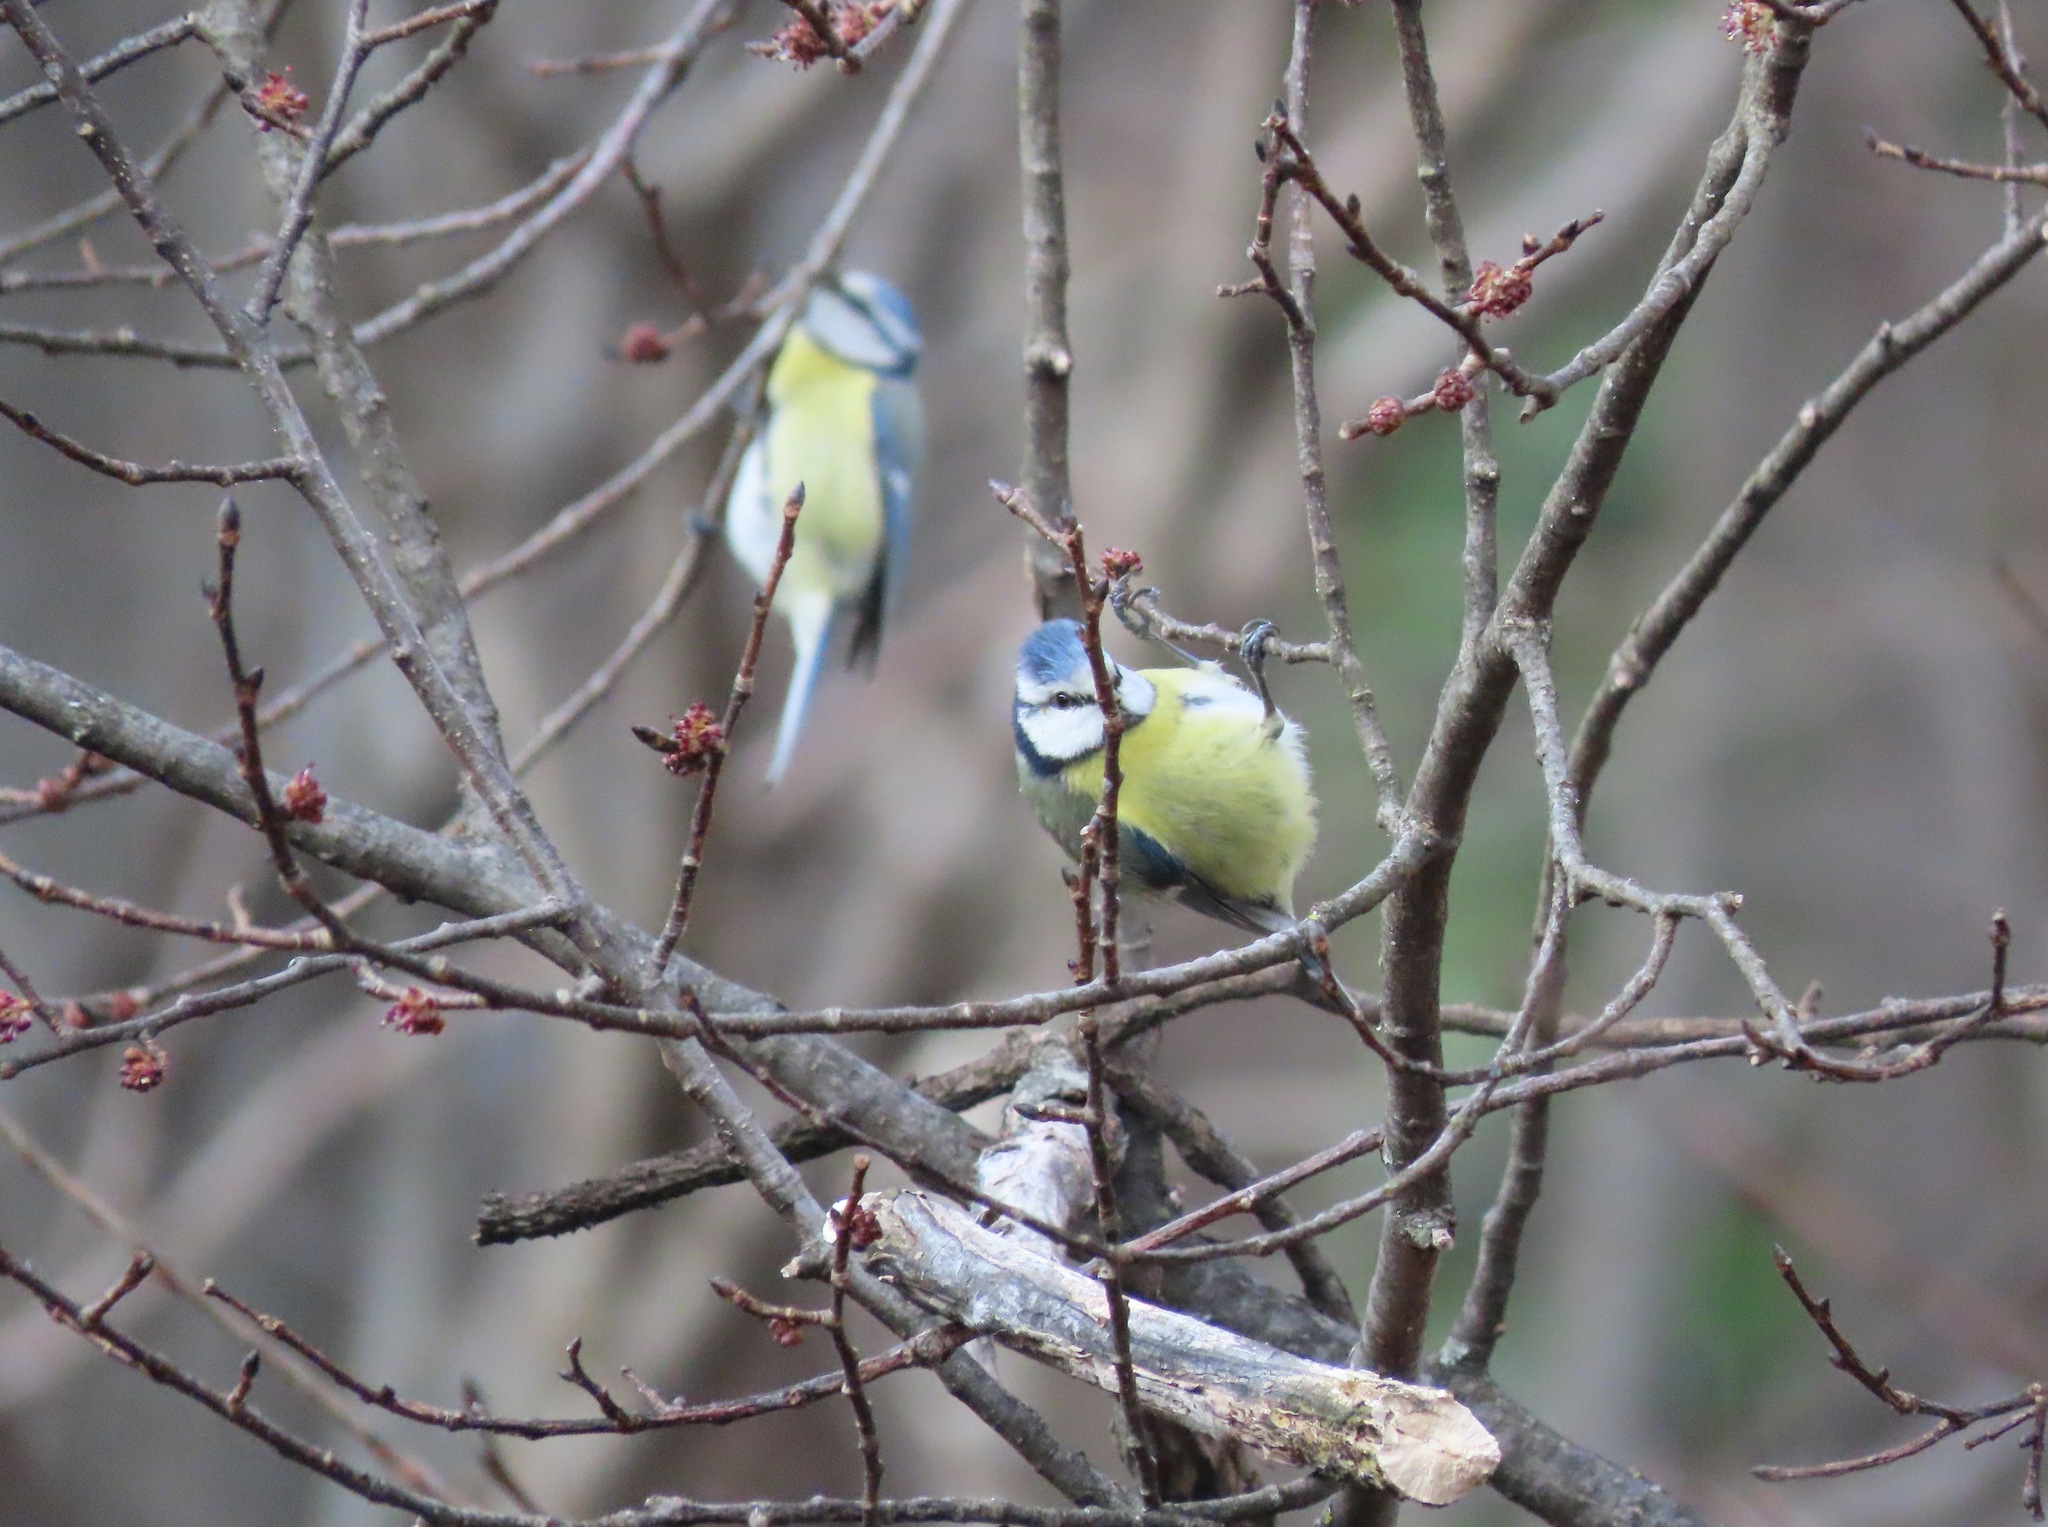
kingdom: Animalia
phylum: Chordata
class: Aves
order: Passeriformes
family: Paridae
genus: Cyanistes
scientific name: Cyanistes caeruleus
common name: Eurasian blue tit
